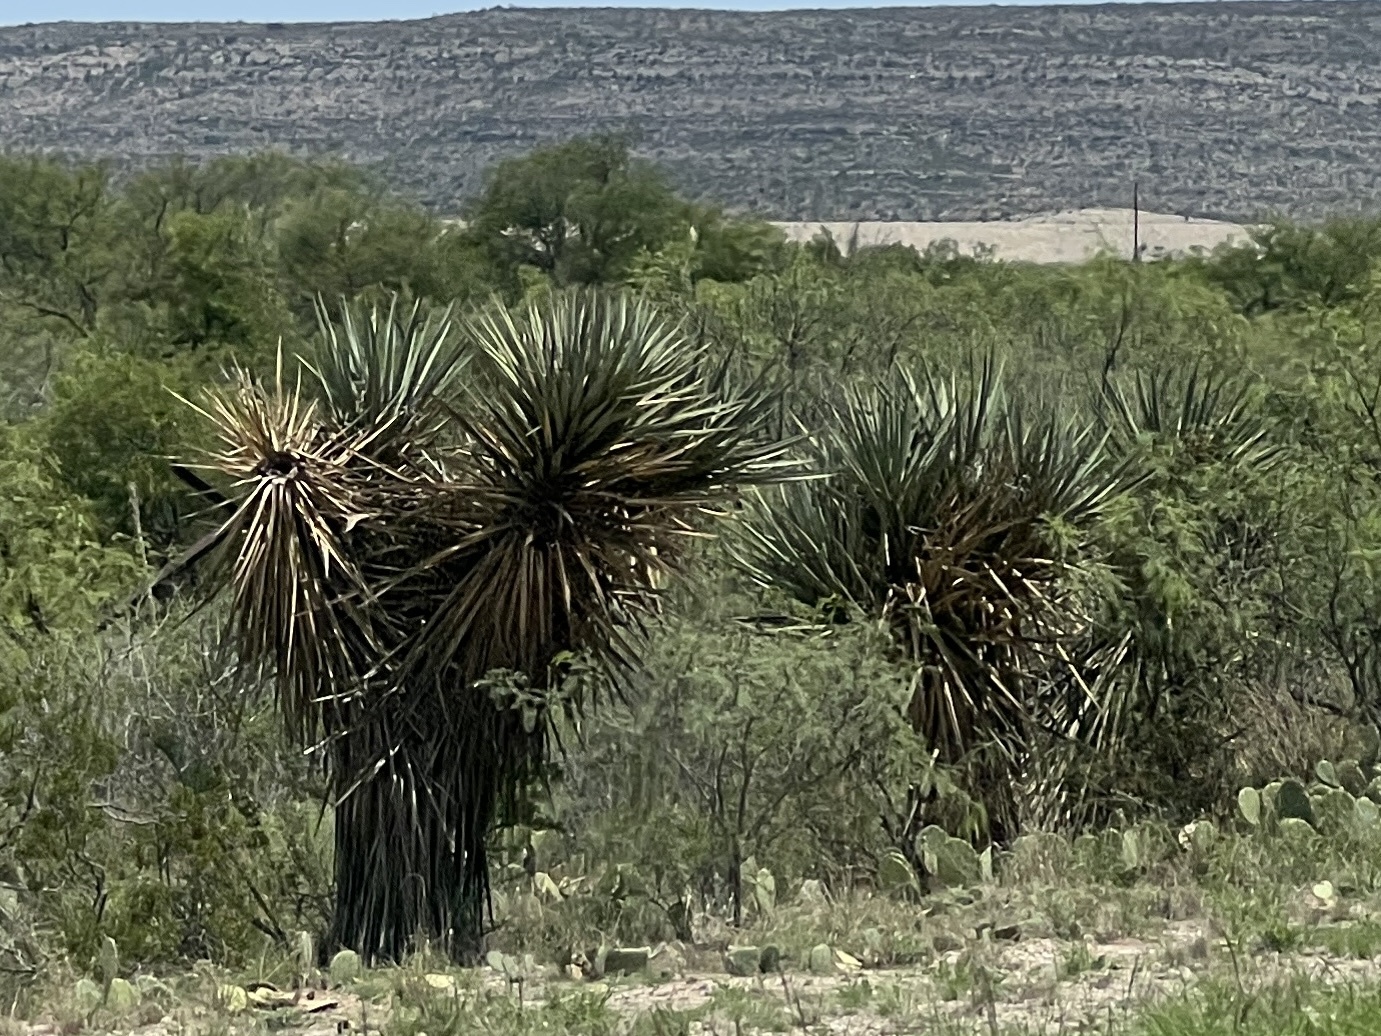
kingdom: Plantae
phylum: Tracheophyta
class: Liliopsida
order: Asparagales
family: Asparagaceae
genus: Yucca
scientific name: Yucca treculiana
